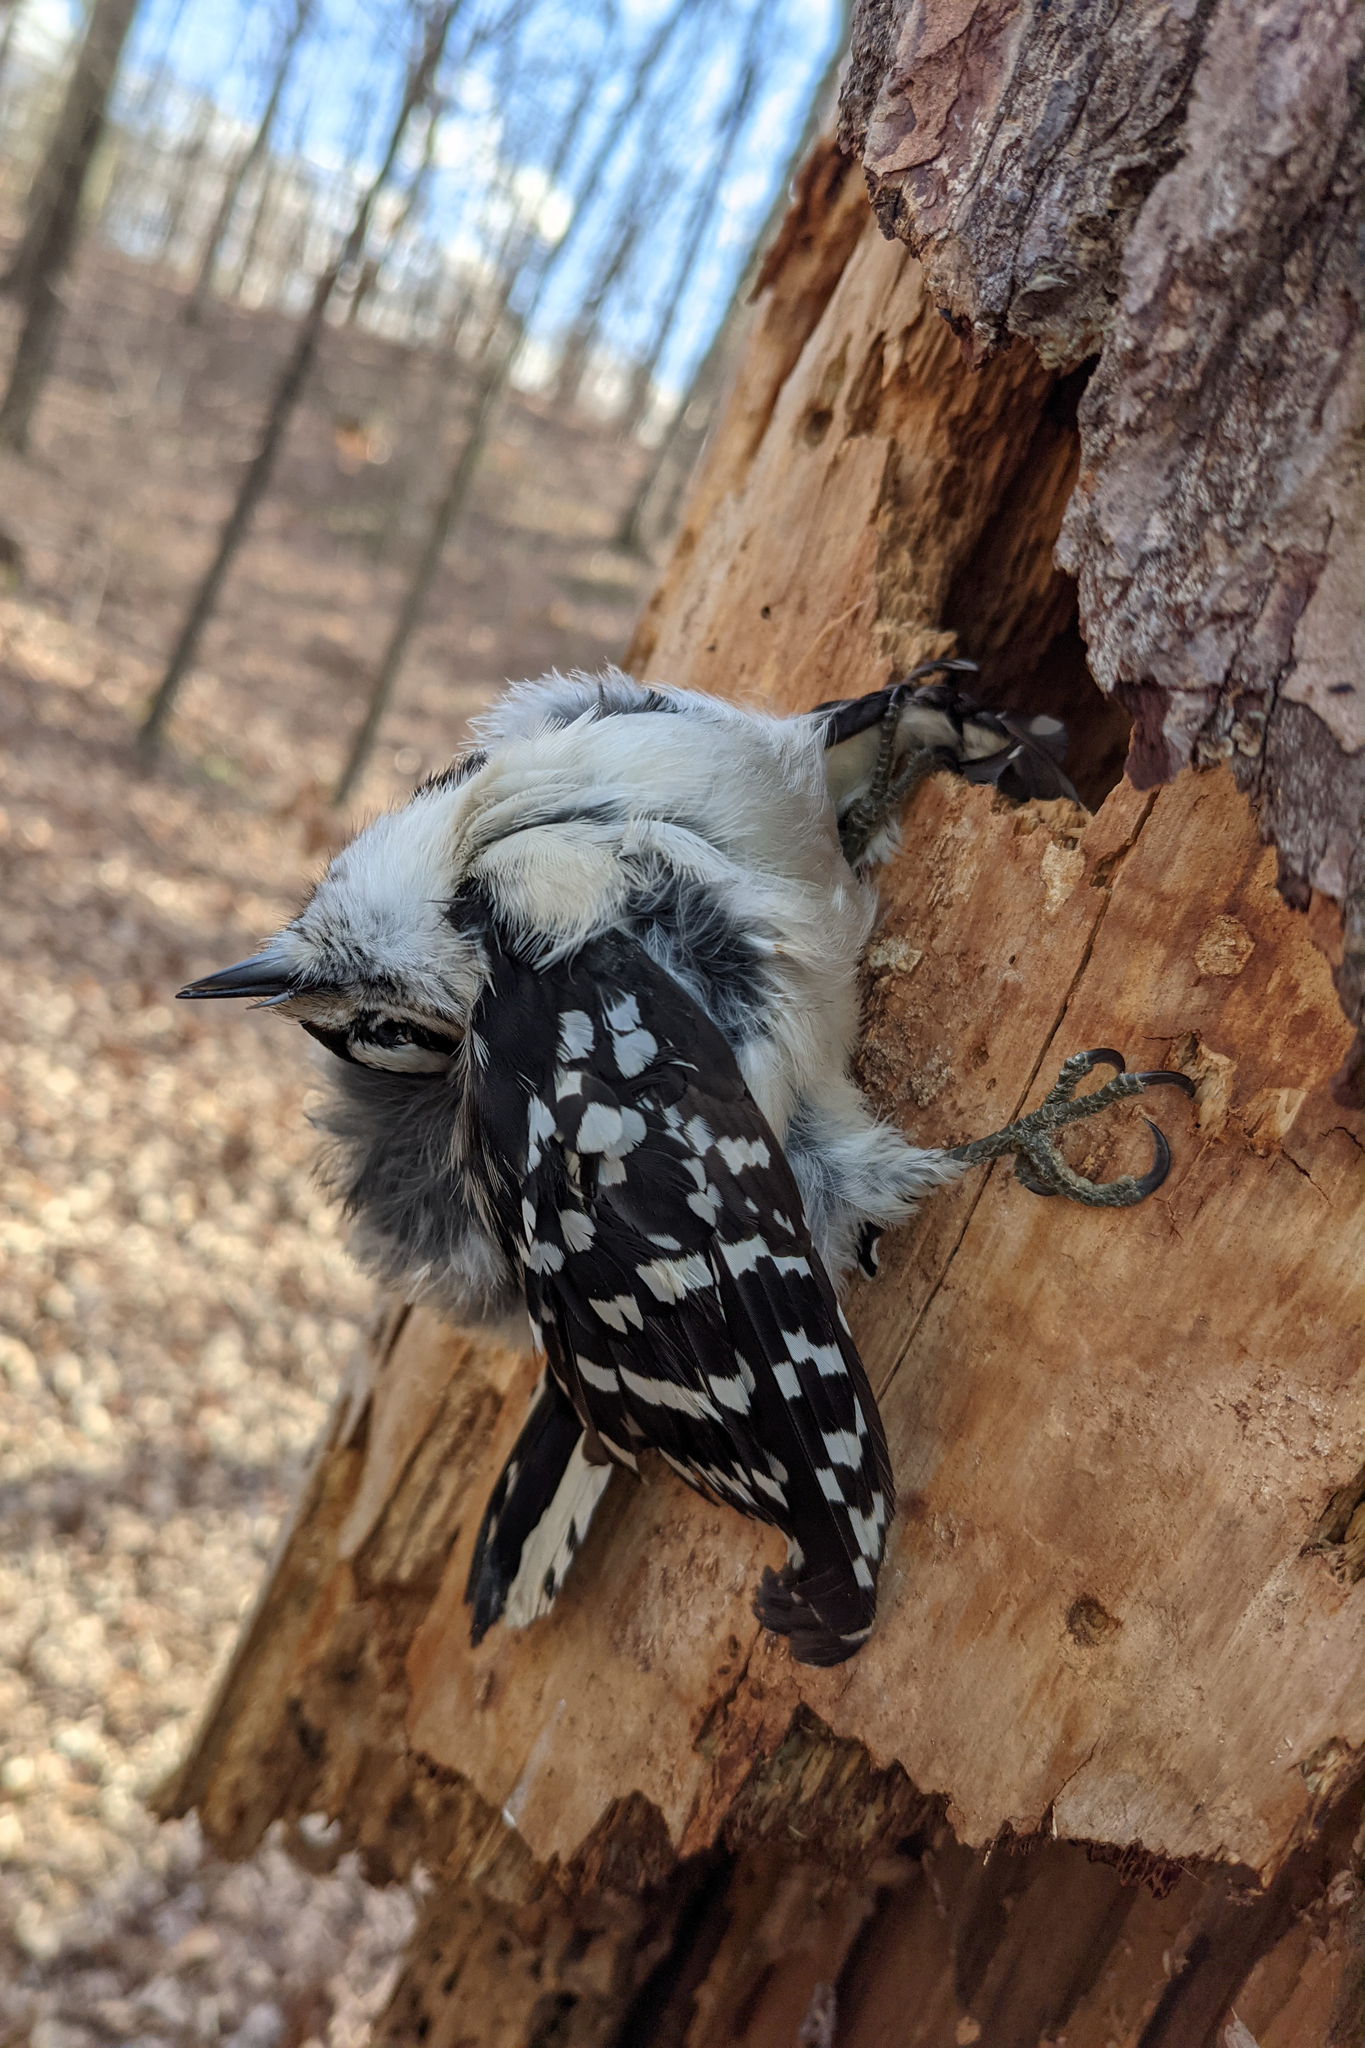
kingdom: Animalia
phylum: Chordata
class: Aves
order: Piciformes
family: Picidae
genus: Dryobates
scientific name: Dryobates pubescens
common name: Downy woodpecker
